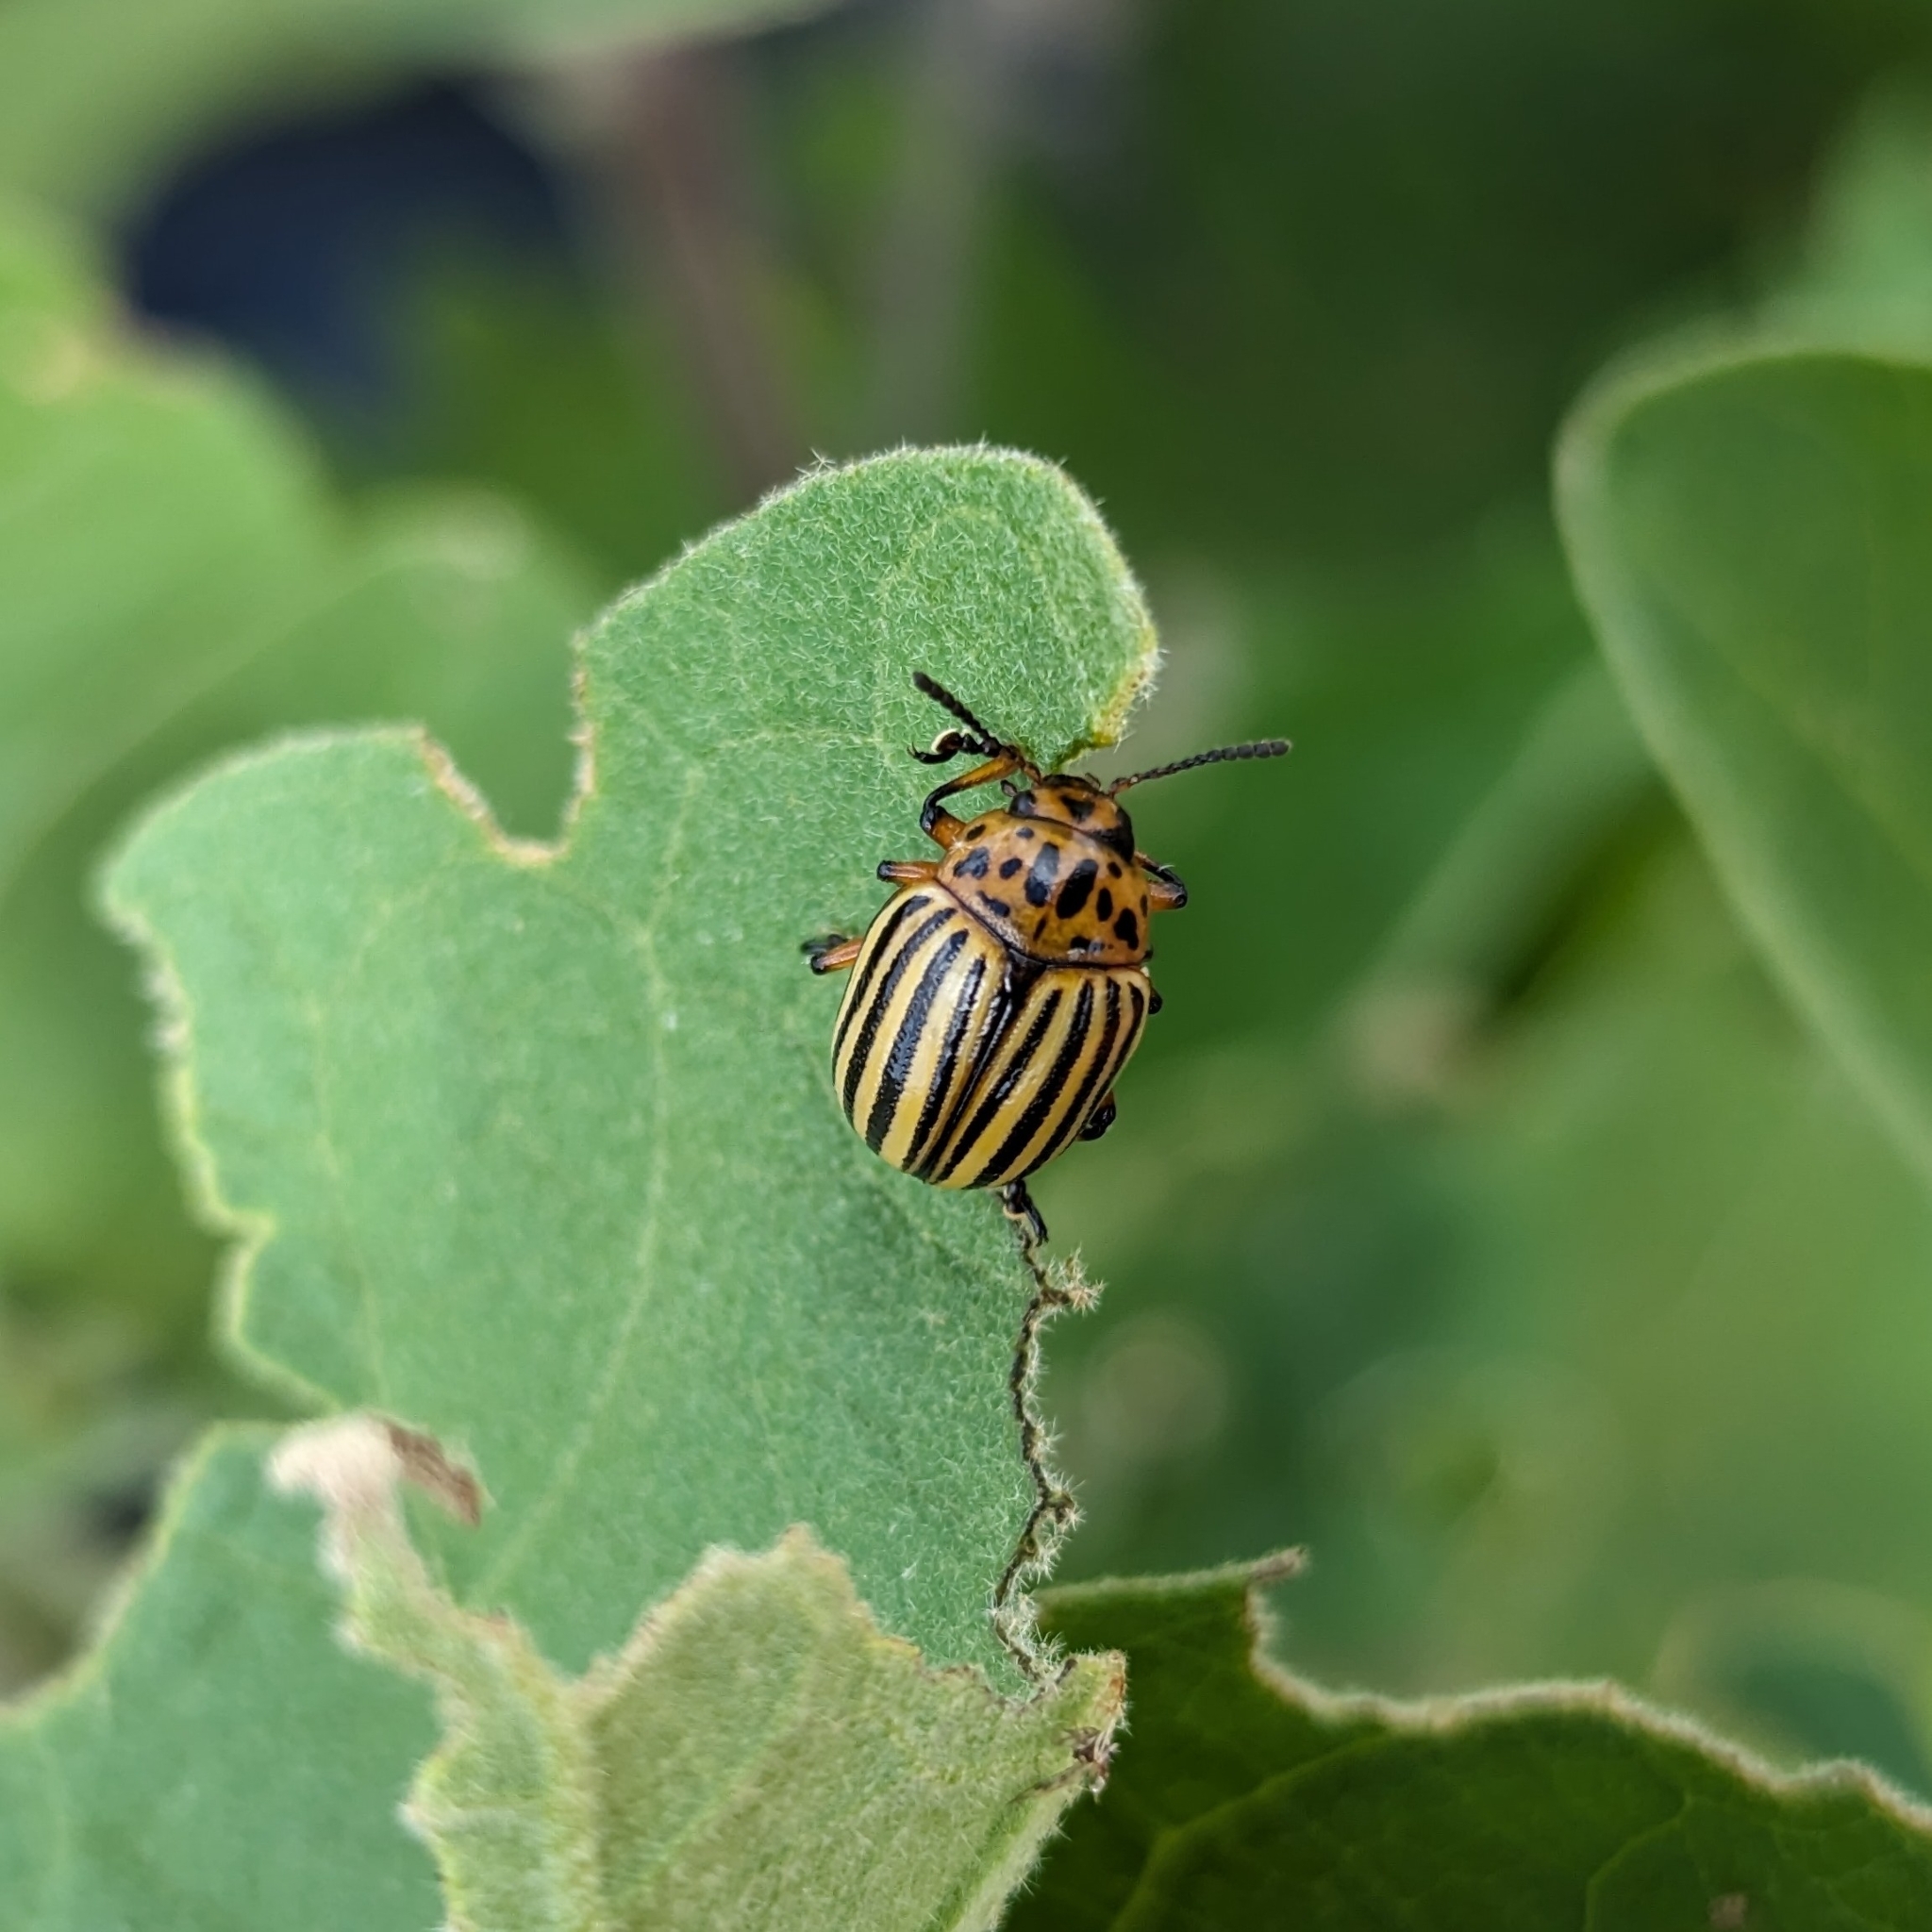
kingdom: Animalia
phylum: Arthropoda
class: Insecta
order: Coleoptera
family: Chrysomelidae
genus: Leptinotarsa
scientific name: Leptinotarsa decemlineata
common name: Colorado potato beetle
